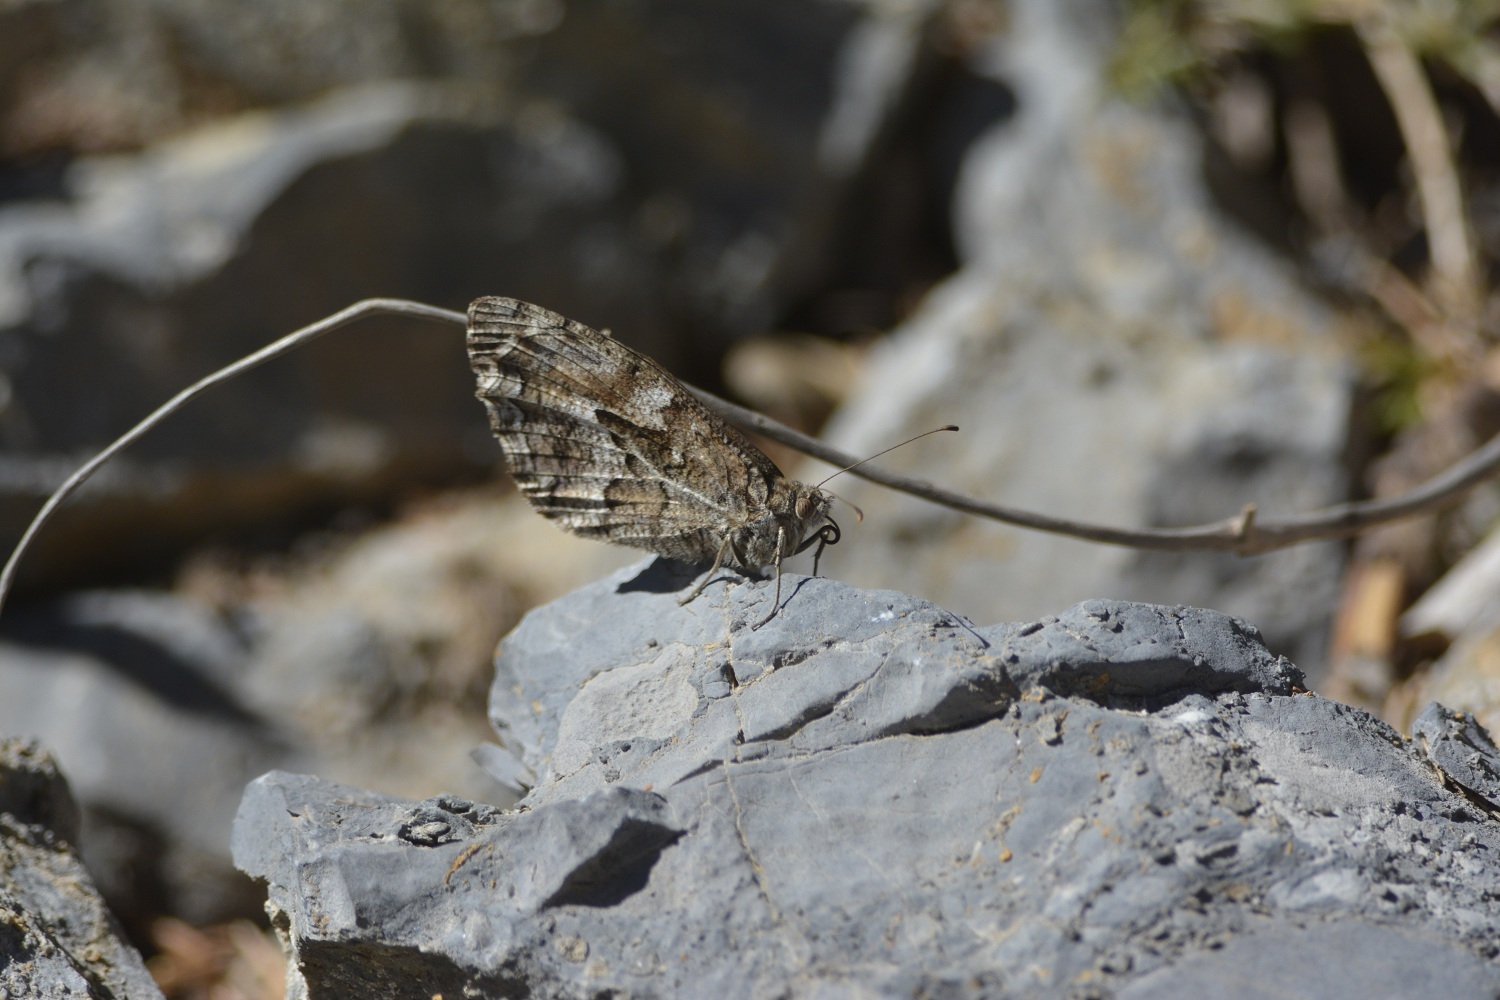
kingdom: Animalia
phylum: Arthropoda
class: Insecta
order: Lepidoptera
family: Nymphalidae
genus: Hipparchia
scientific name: Hipparchia algirica
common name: Mountain grayling
